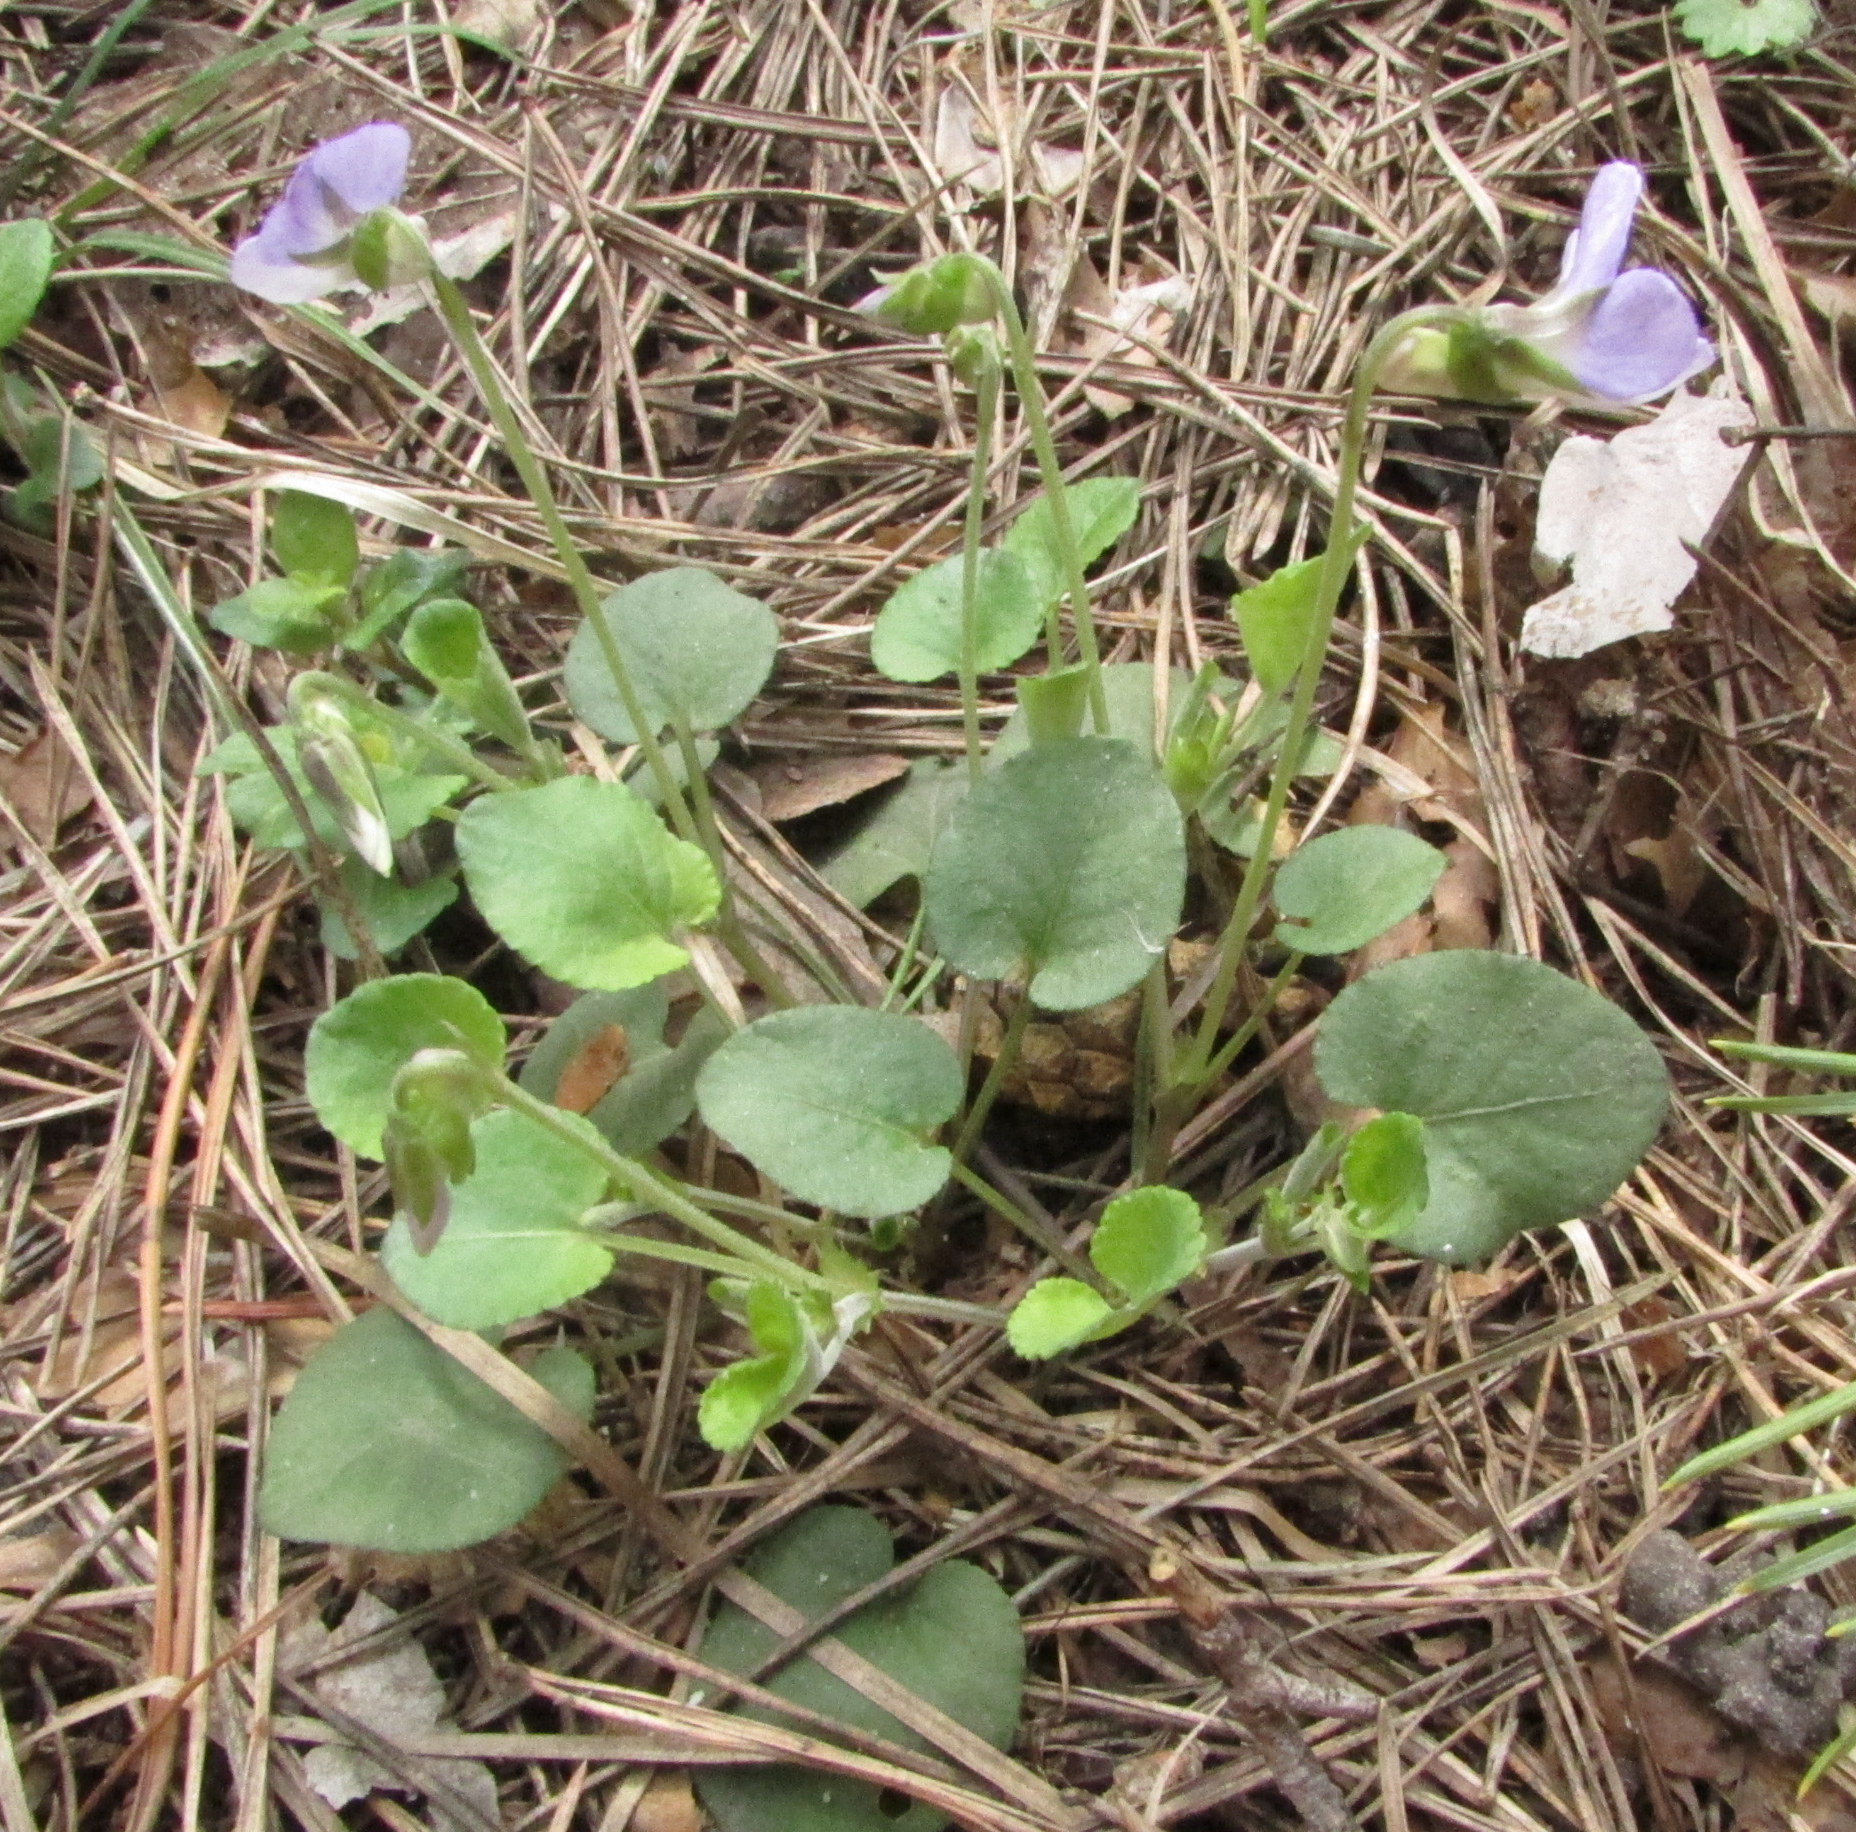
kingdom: Plantae
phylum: Tracheophyta
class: Magnoliopsida
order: Malpighiales
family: Violaceae
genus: Viola
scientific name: Viola rupestris
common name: Teesdale violet
